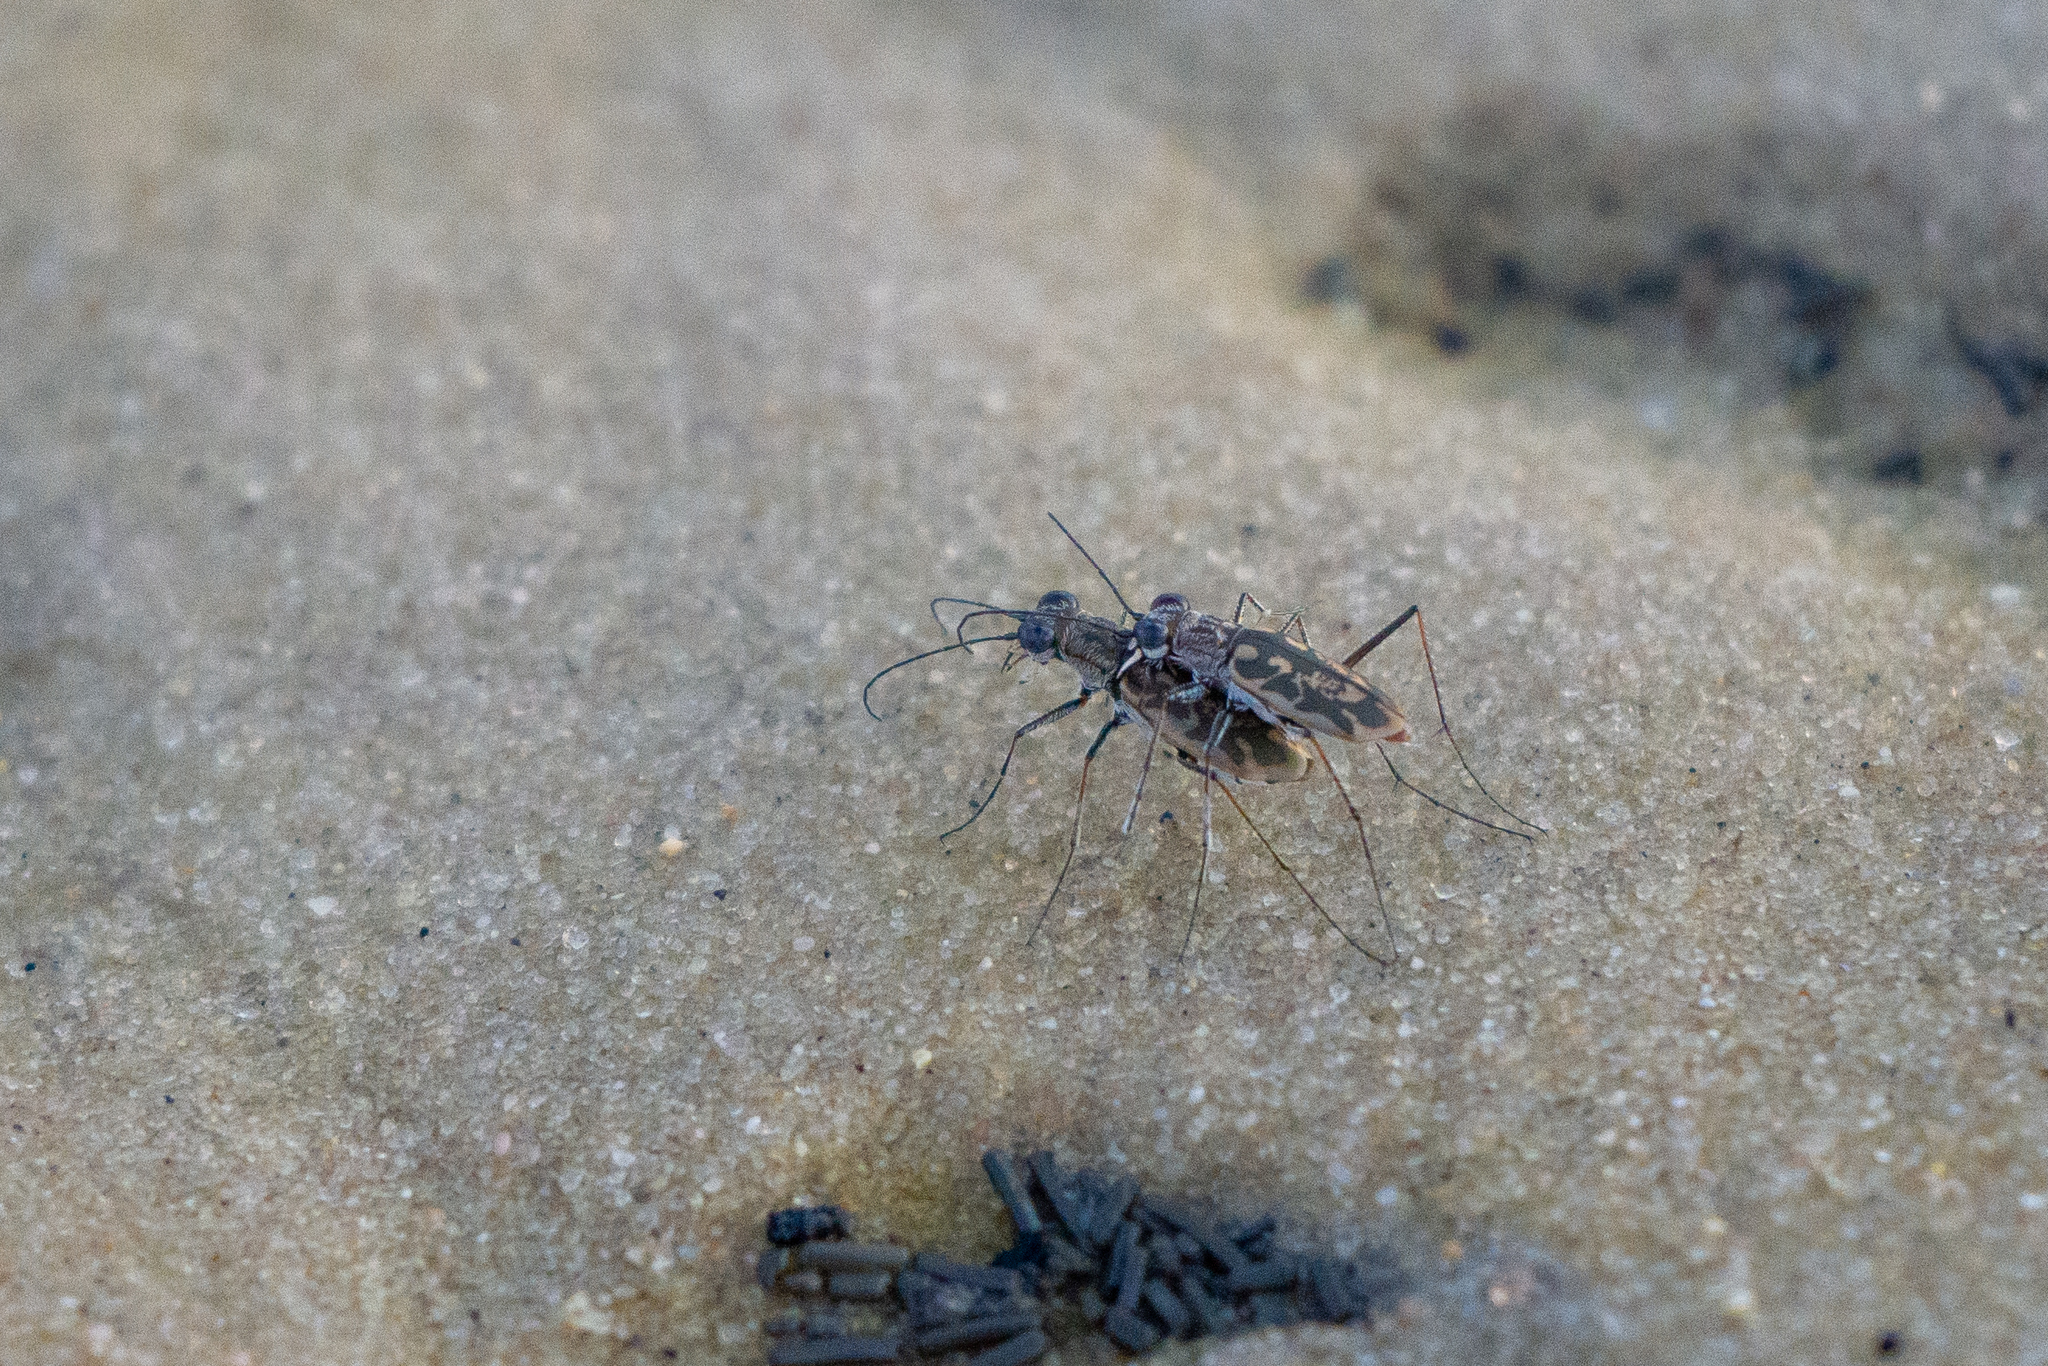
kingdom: Animalia
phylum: Arthropoda
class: Insecta
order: Coleoptera
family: Carabidae
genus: Ellipsoptera
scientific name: Ellipsoptera hamata
